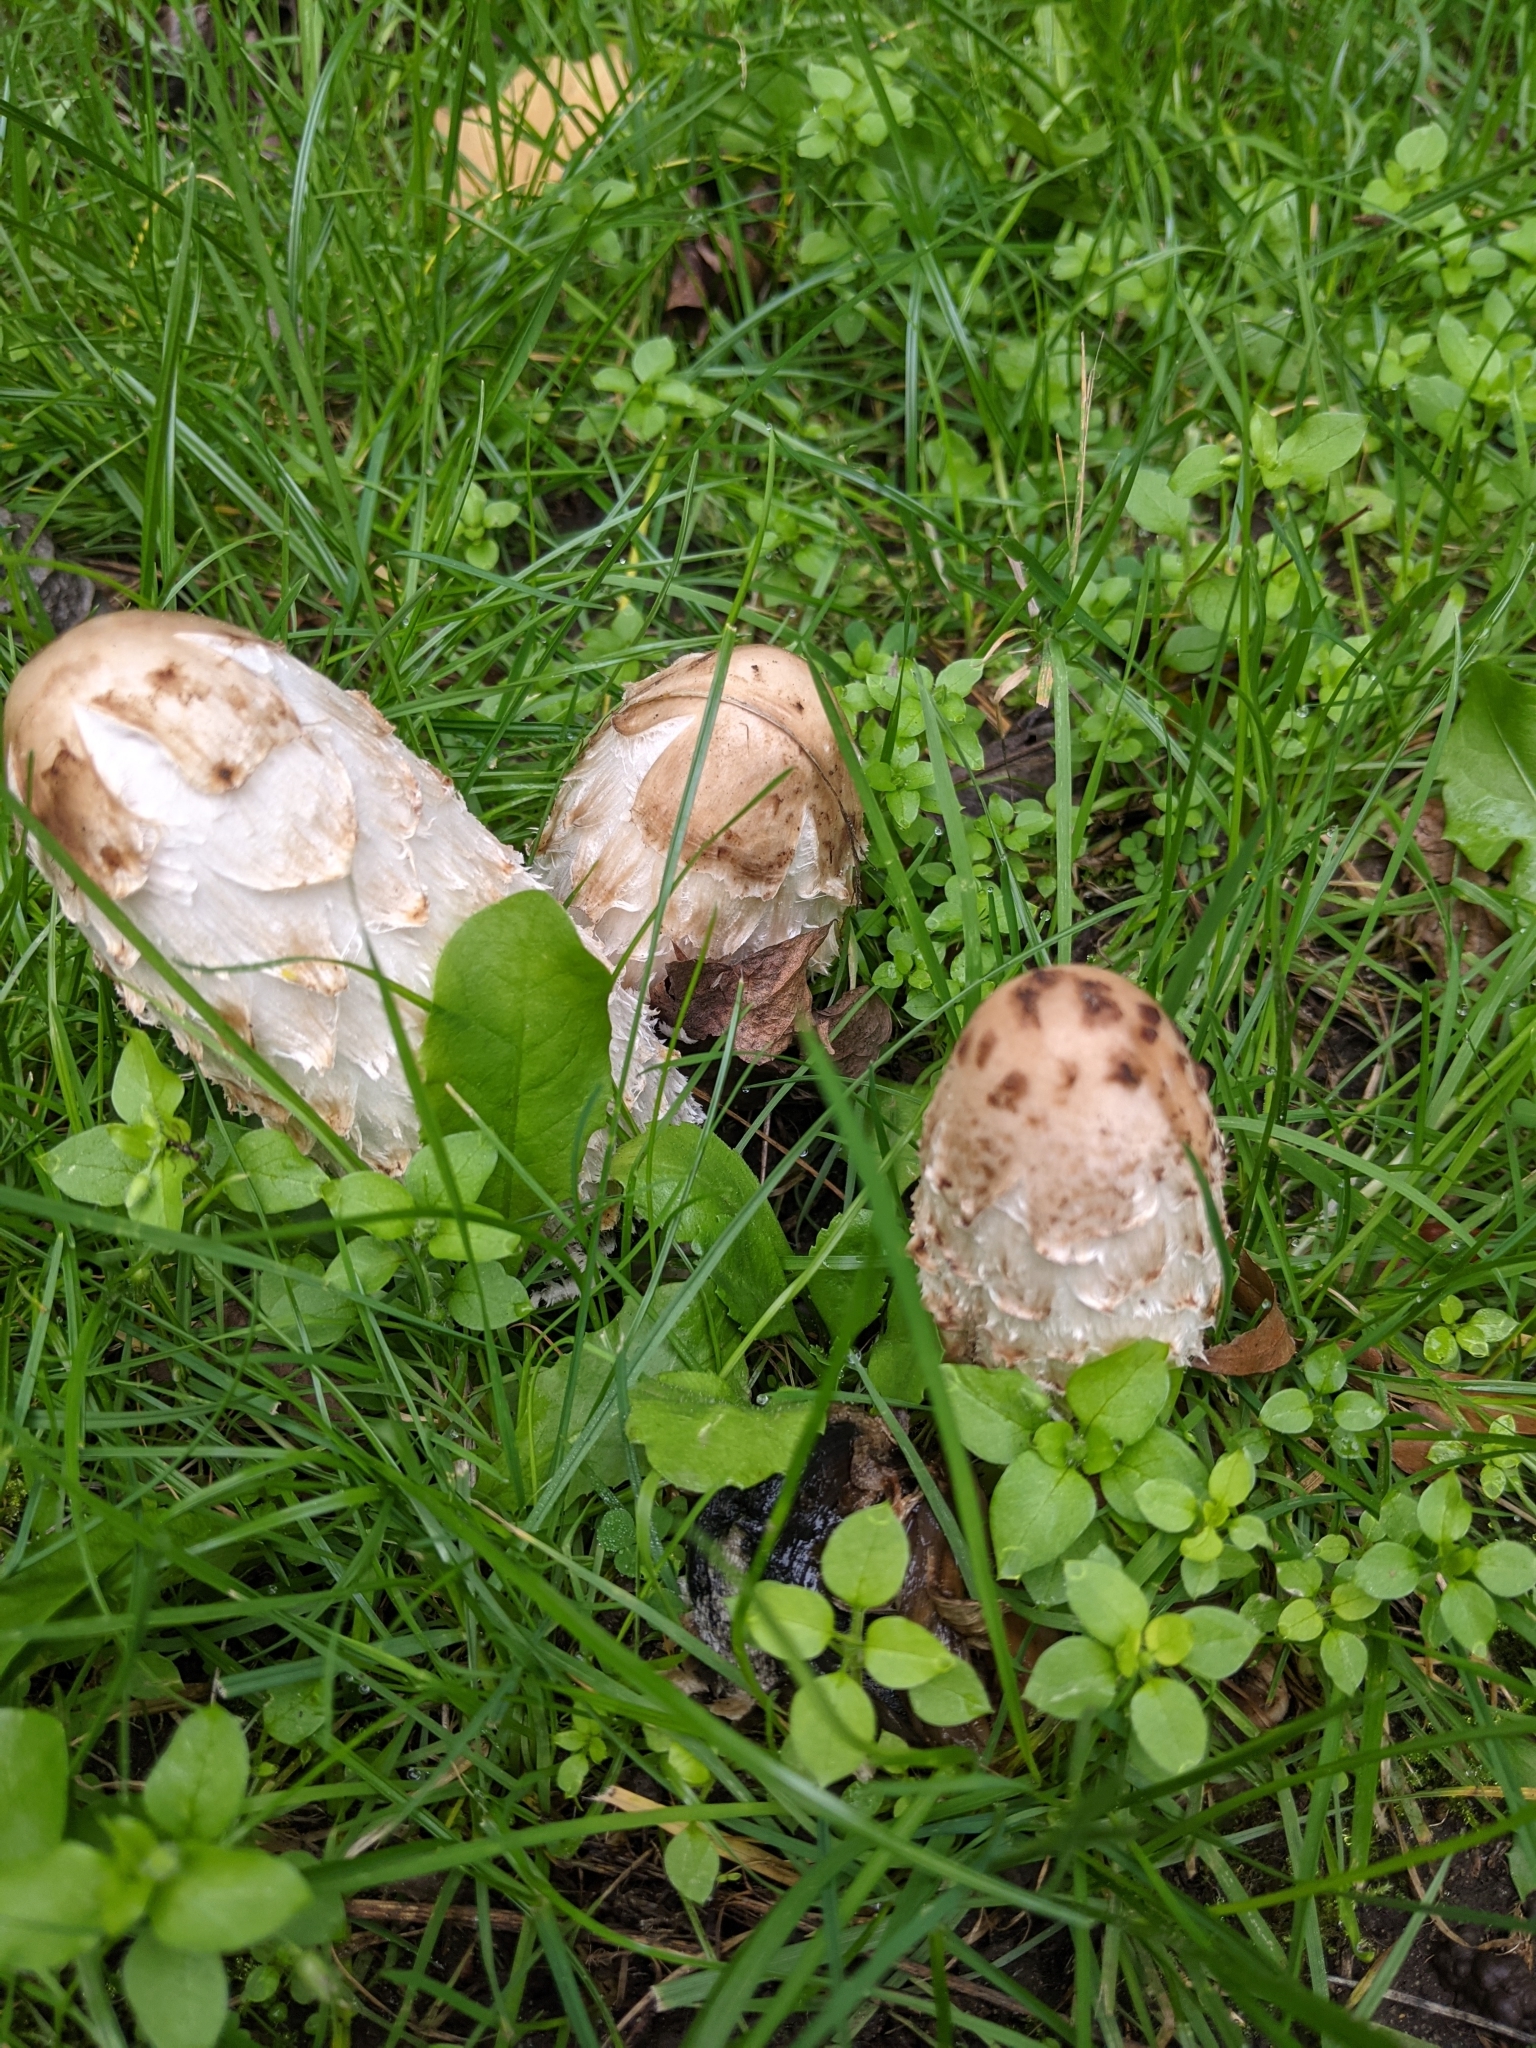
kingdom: Fungi
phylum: Basidiomycota
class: Agaricomycetes
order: Agaricales
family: Agaricaceae
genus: Coprinus
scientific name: Coprinus comatus
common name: Lawyer's wig
